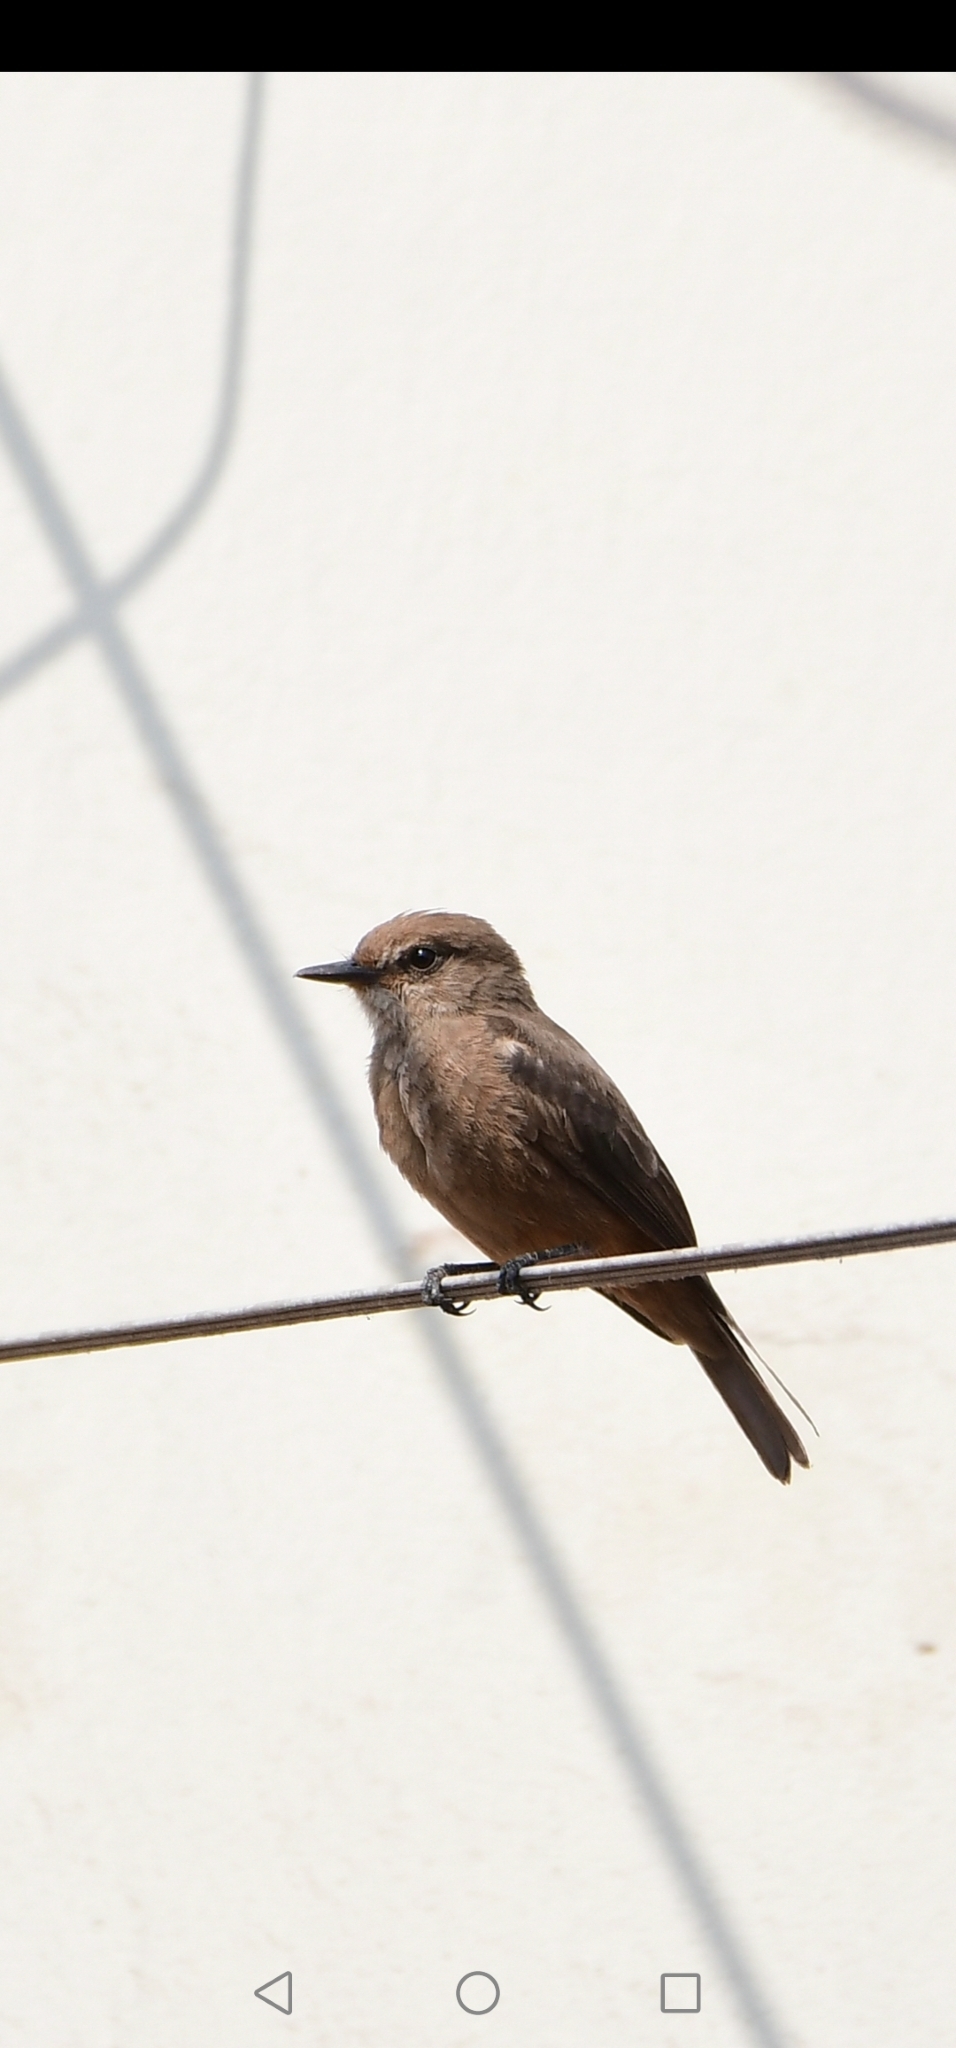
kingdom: Animalia
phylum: Chordata
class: Aves
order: Passeriformes
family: Tyrannidae
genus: Pyrocephalus
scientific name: Pyrocephalus rubinus
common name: Vermilion flycatcher
